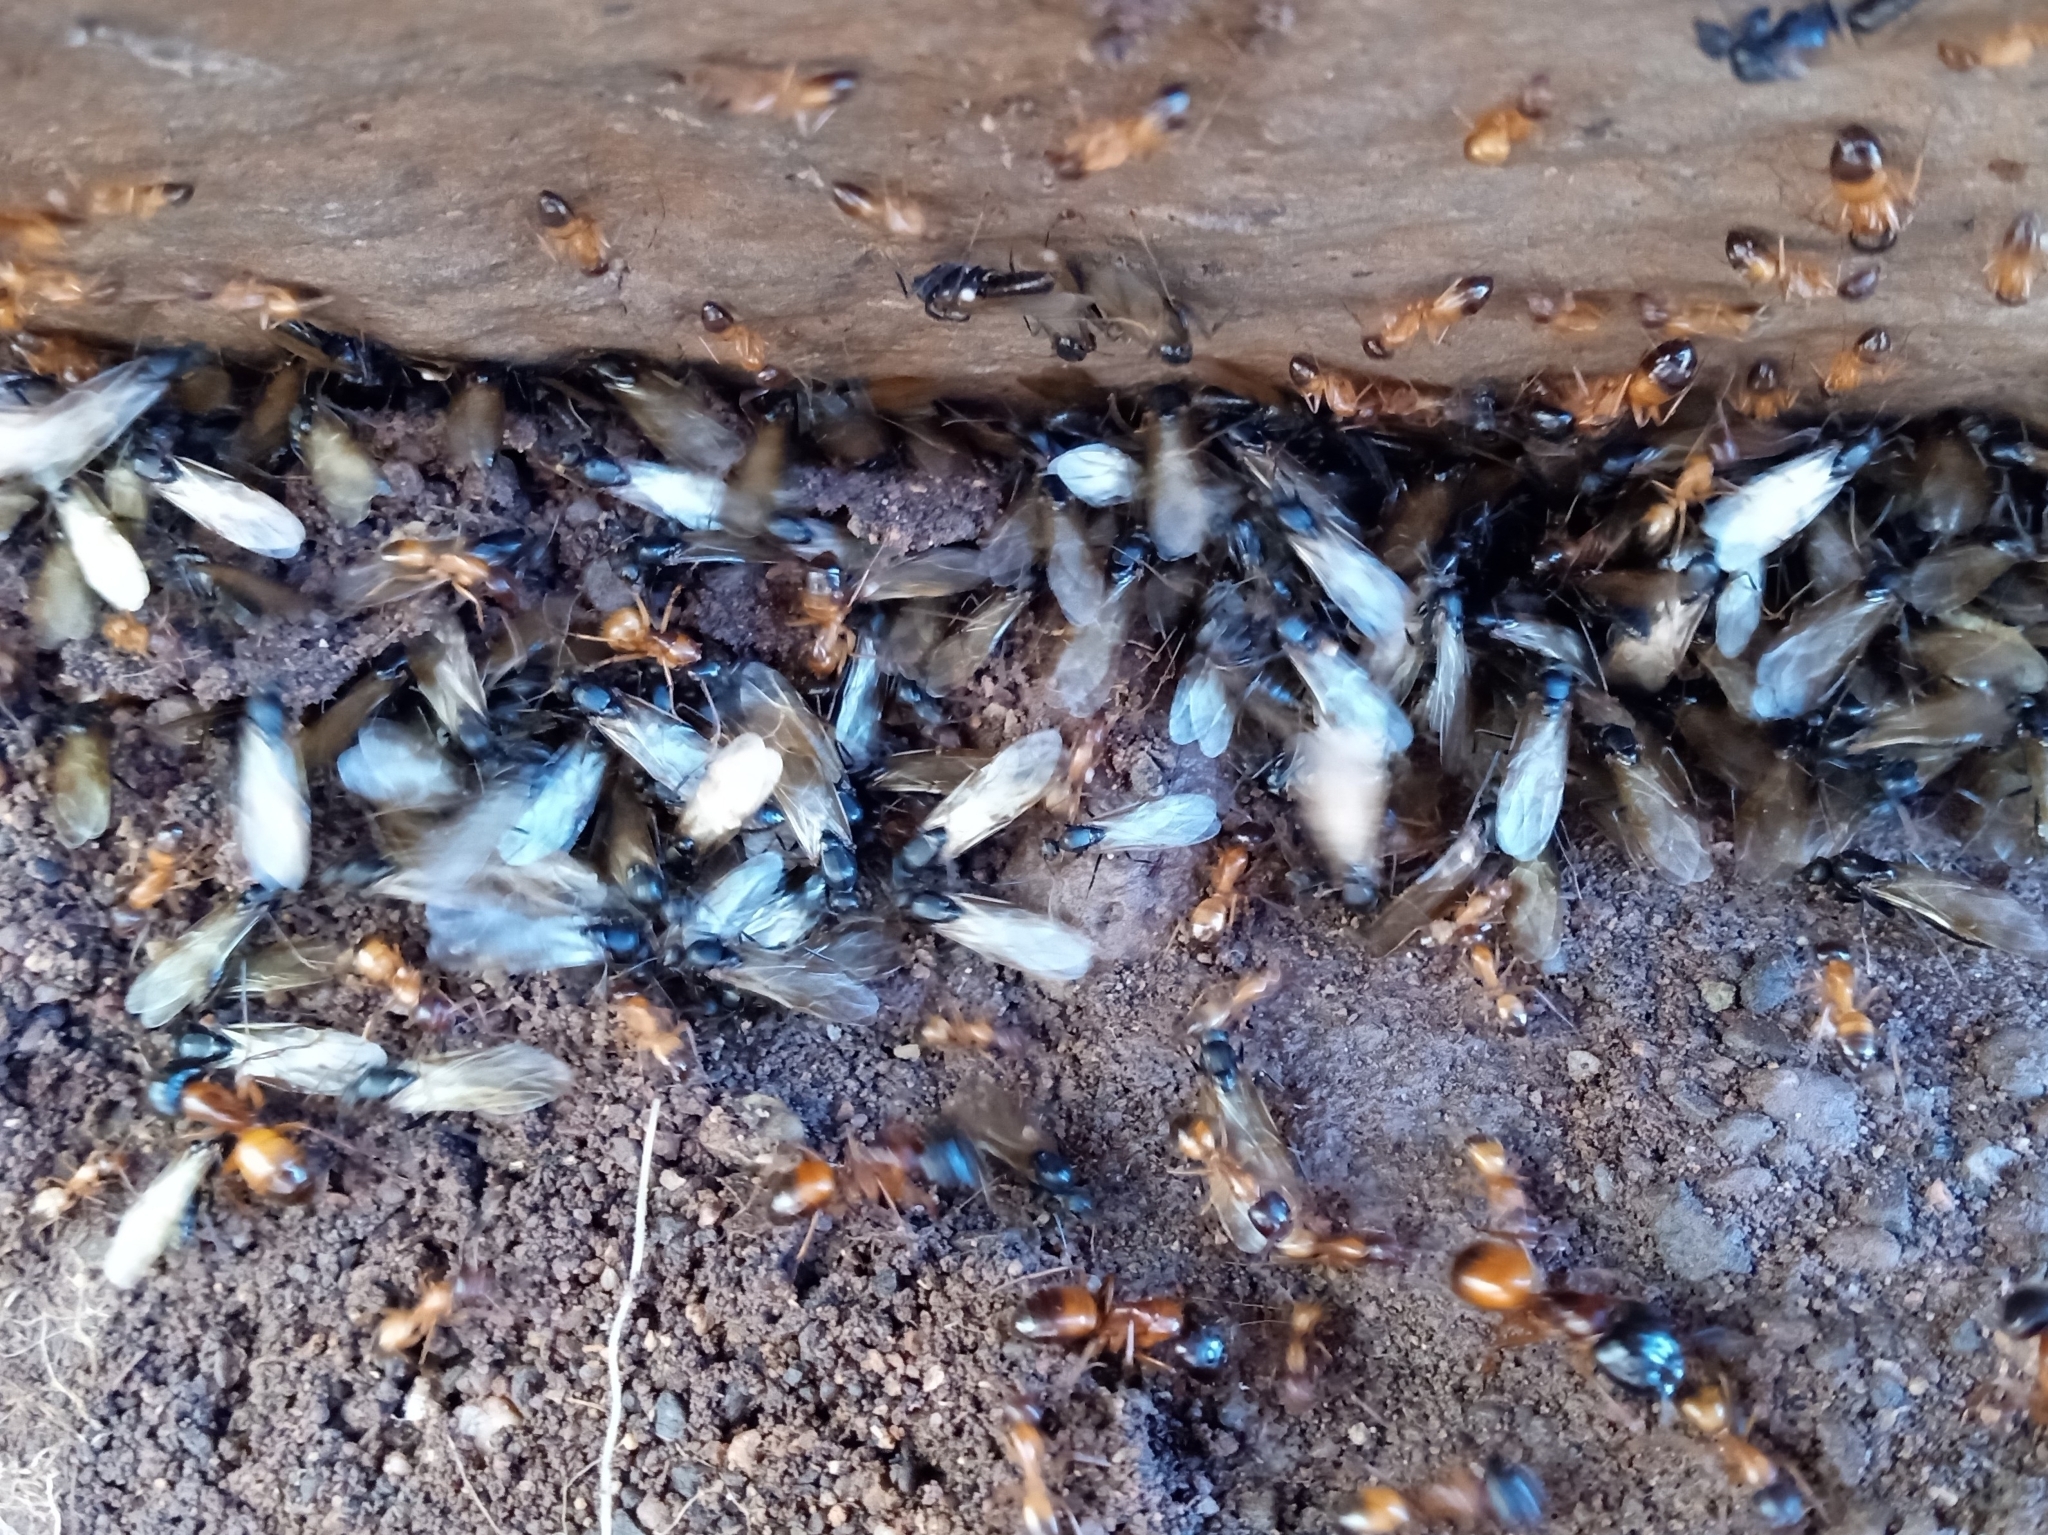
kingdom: Animalia
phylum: Arthropoda
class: Insecta
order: Hymenoptera
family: Formicidae
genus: Camponotus
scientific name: Camponotus sansabeanus
